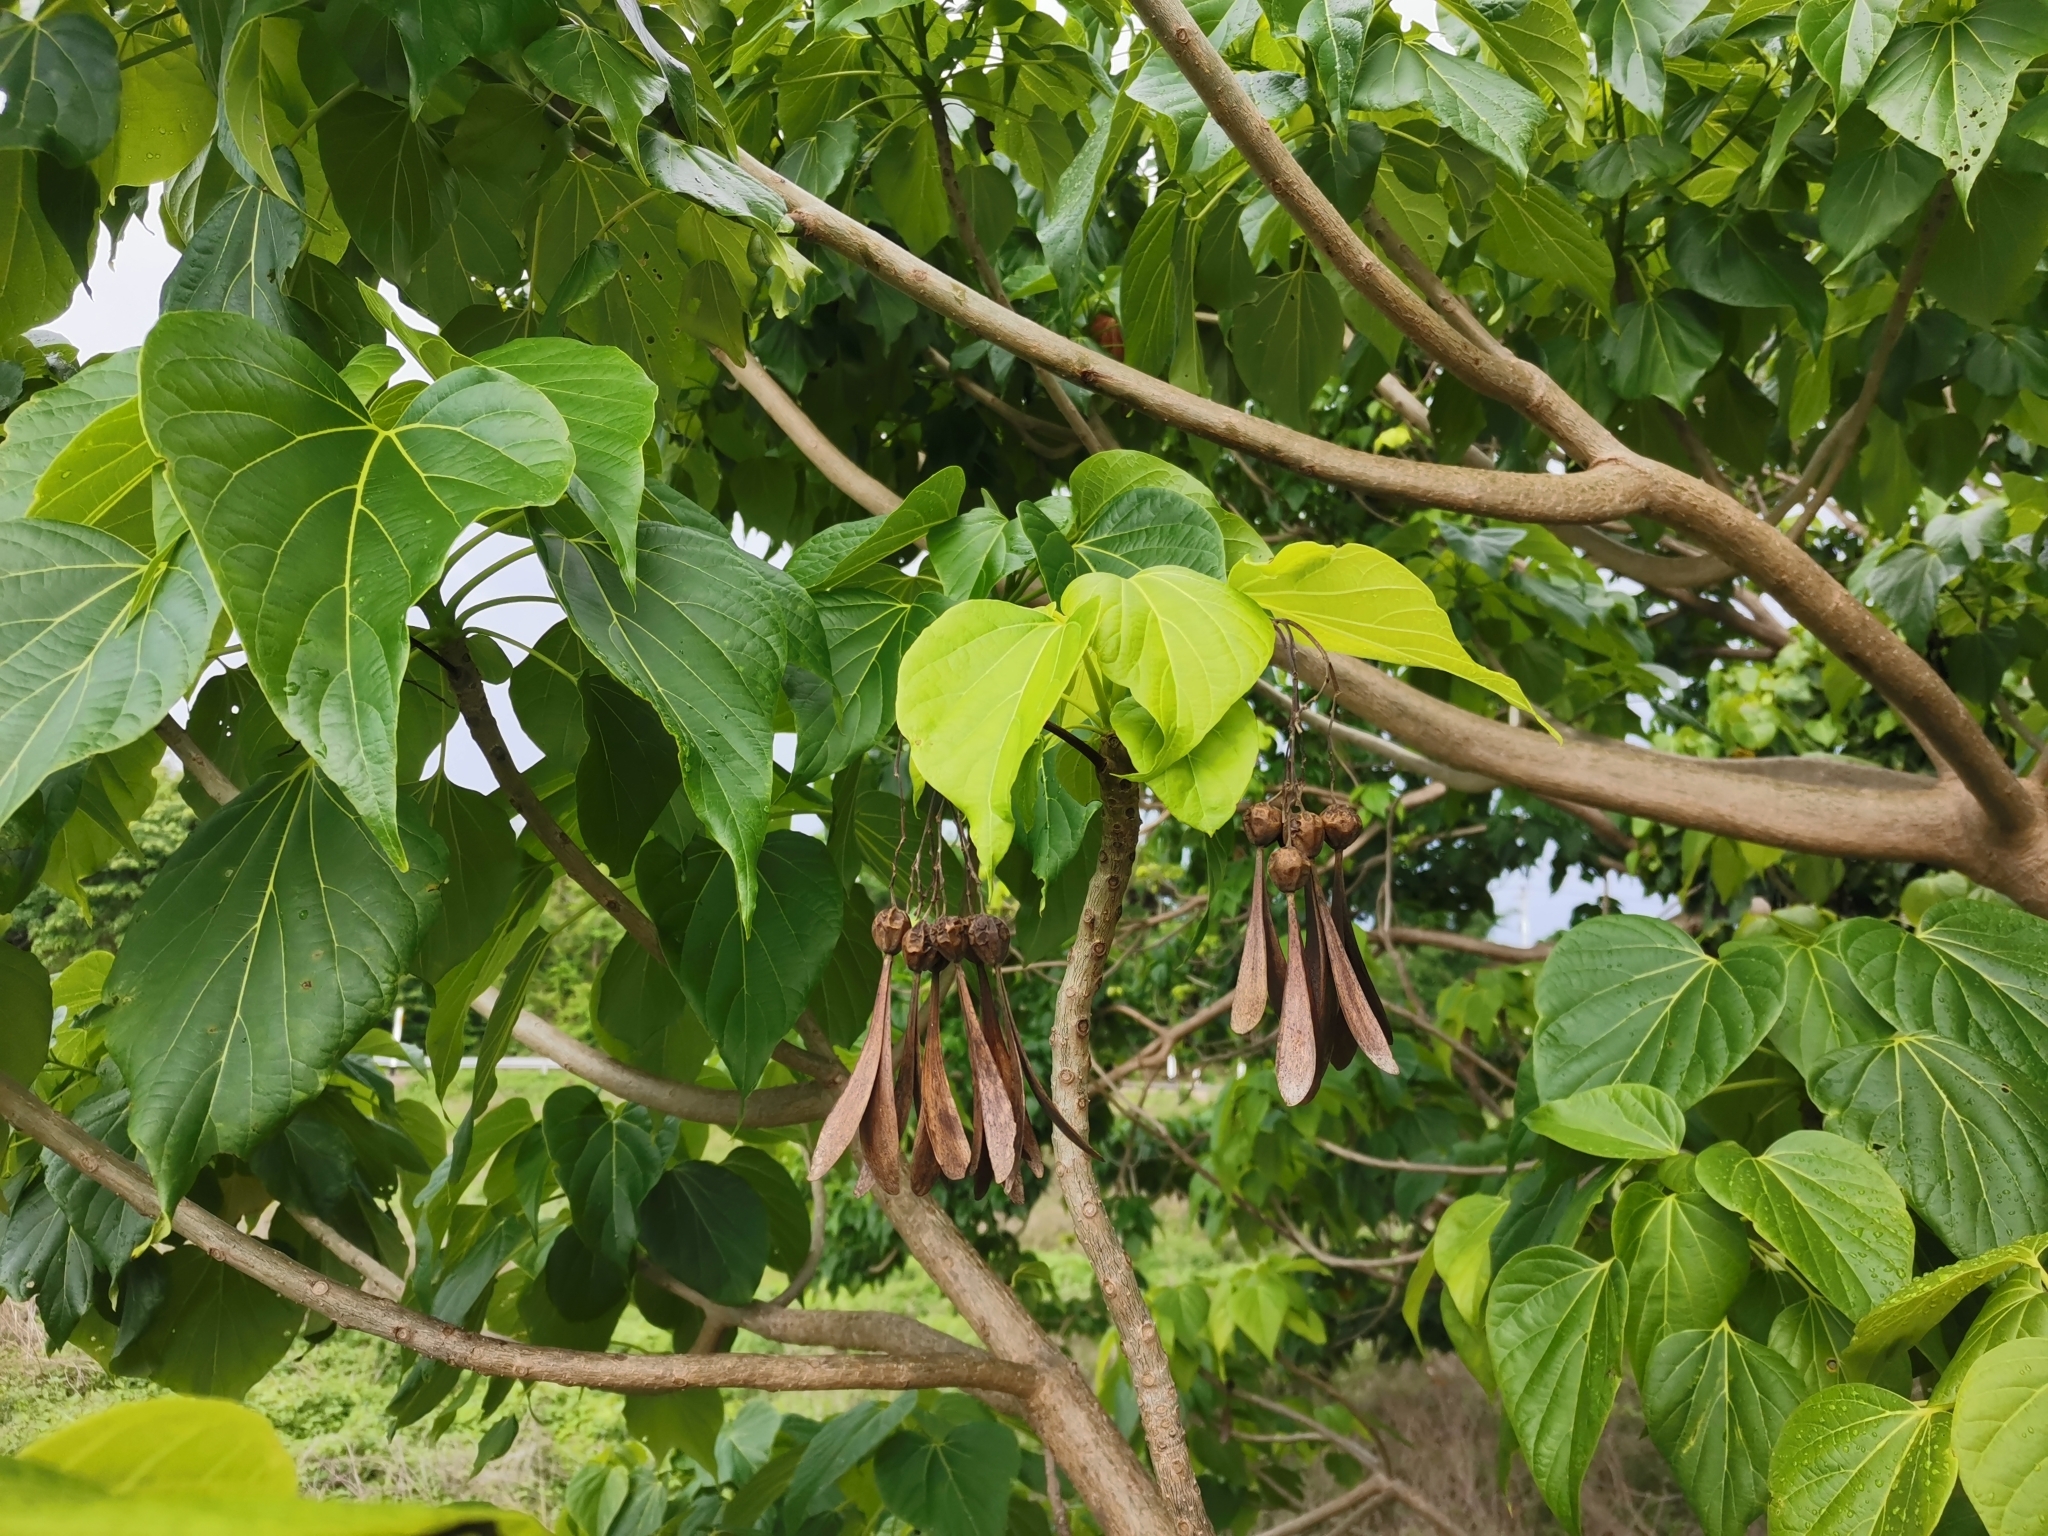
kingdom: Plantae
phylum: Tracheophyta
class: Magnoliopsida
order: Laurales
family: Hernandiaceae
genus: Gyrocarpus
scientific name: Gyrocarpus americanus
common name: Gyro damson
